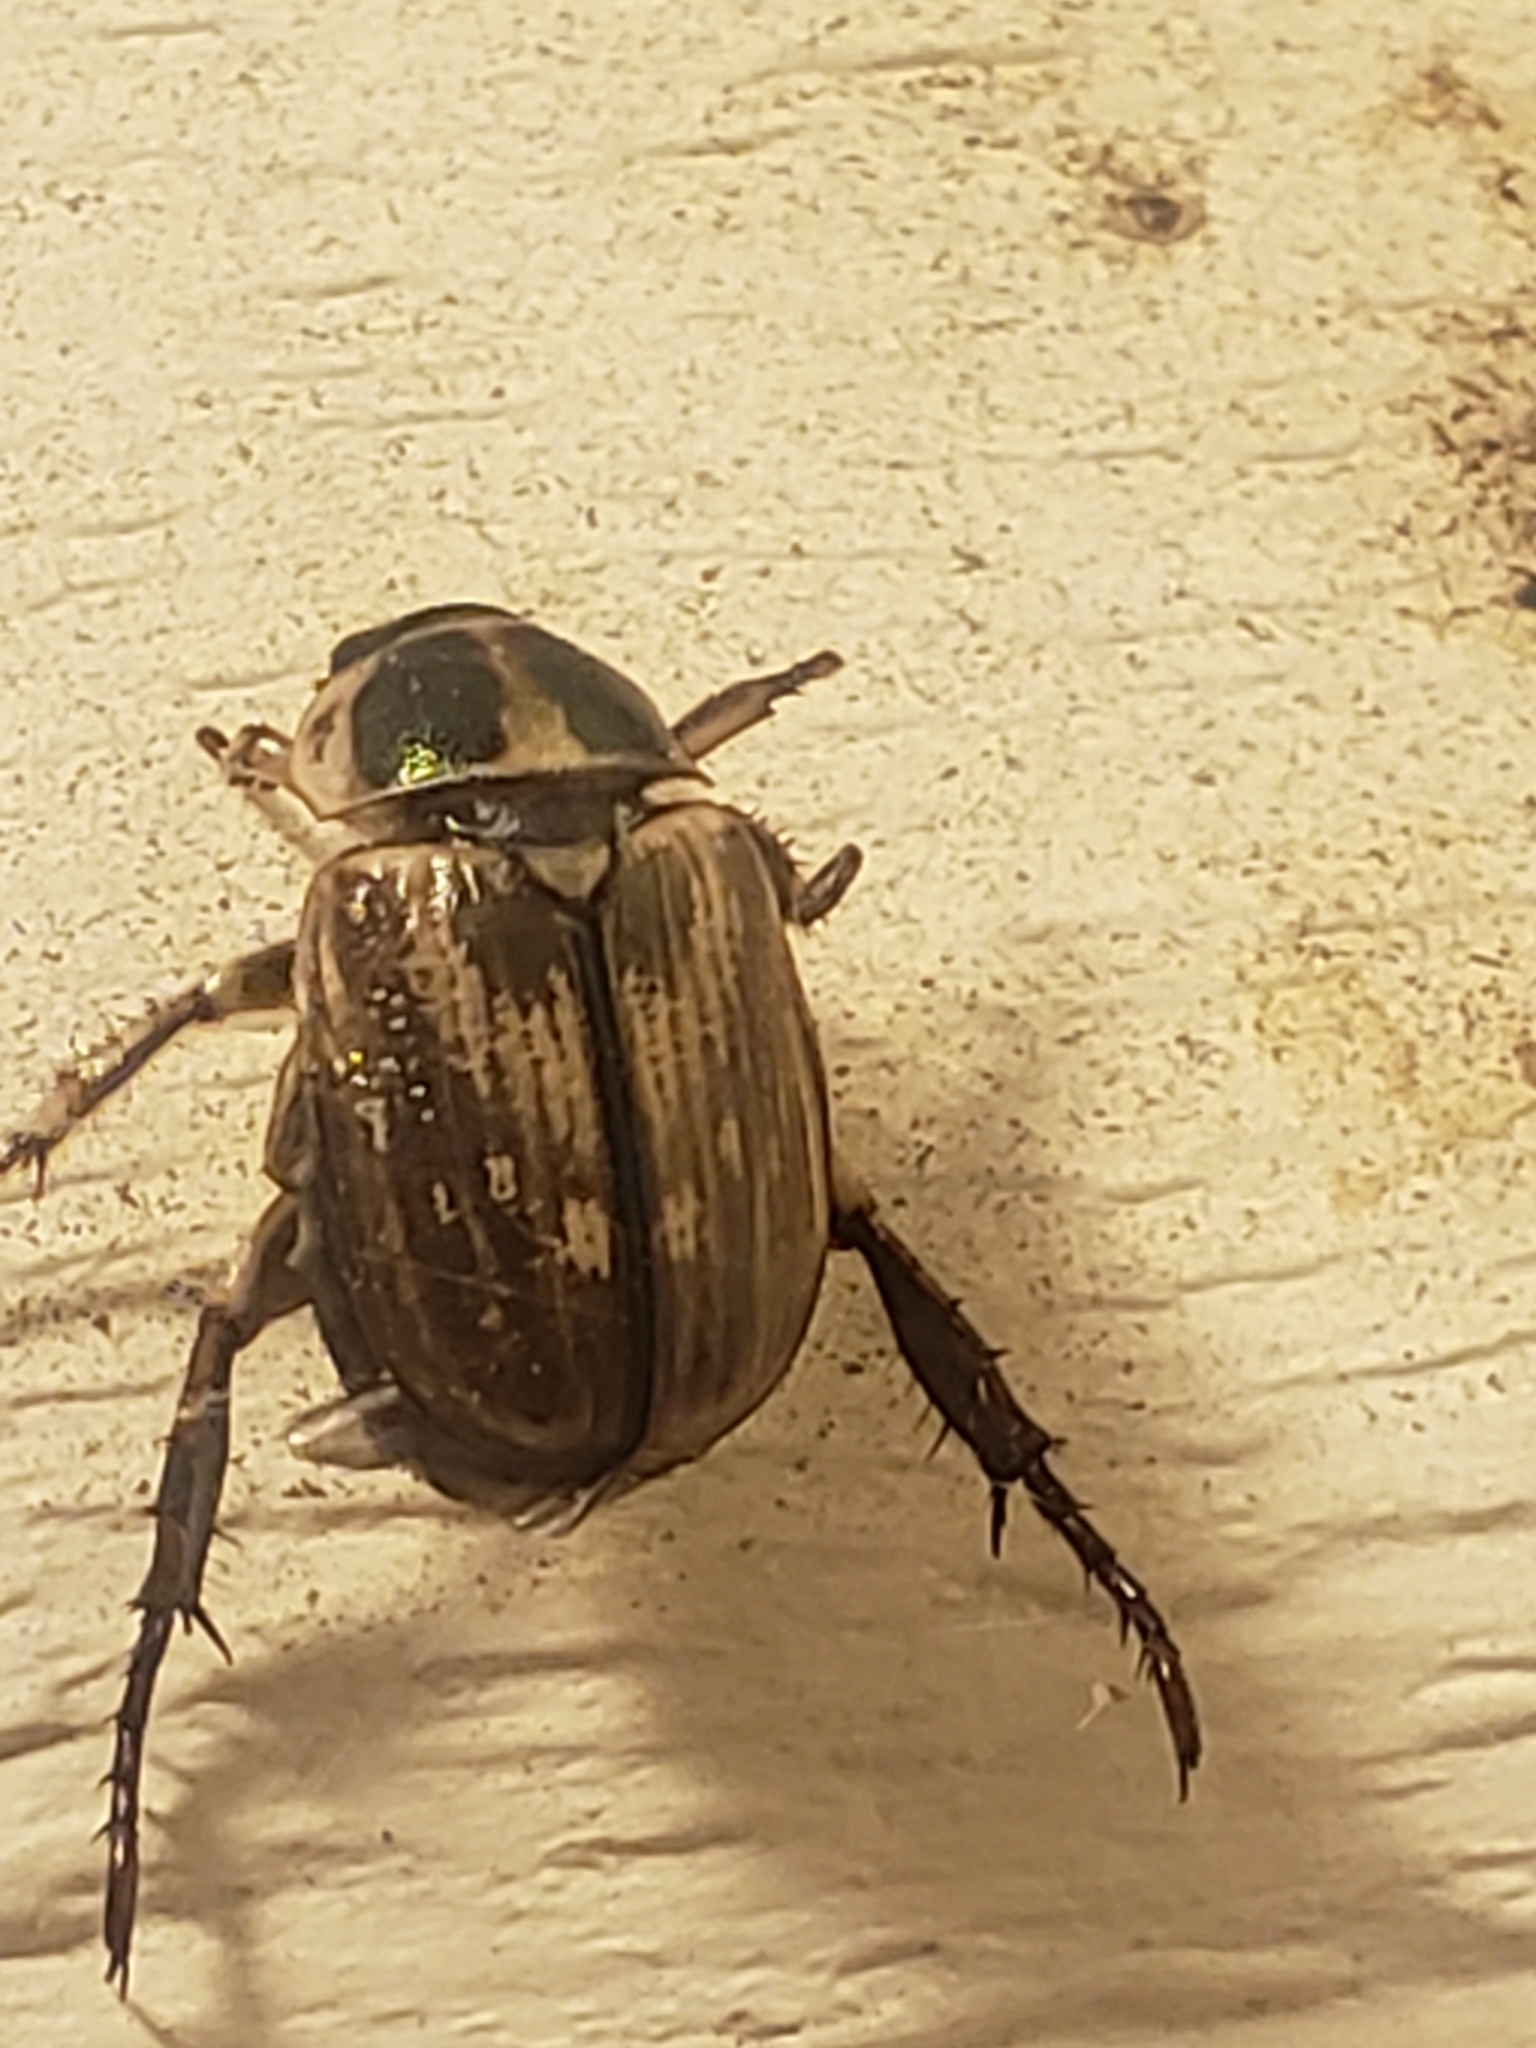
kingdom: Animalia
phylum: Arthropoda
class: Insecta
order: Coleoptera
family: Scarabaeidae
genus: Exomala
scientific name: Exomala orientalis
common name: Oriental beetle
